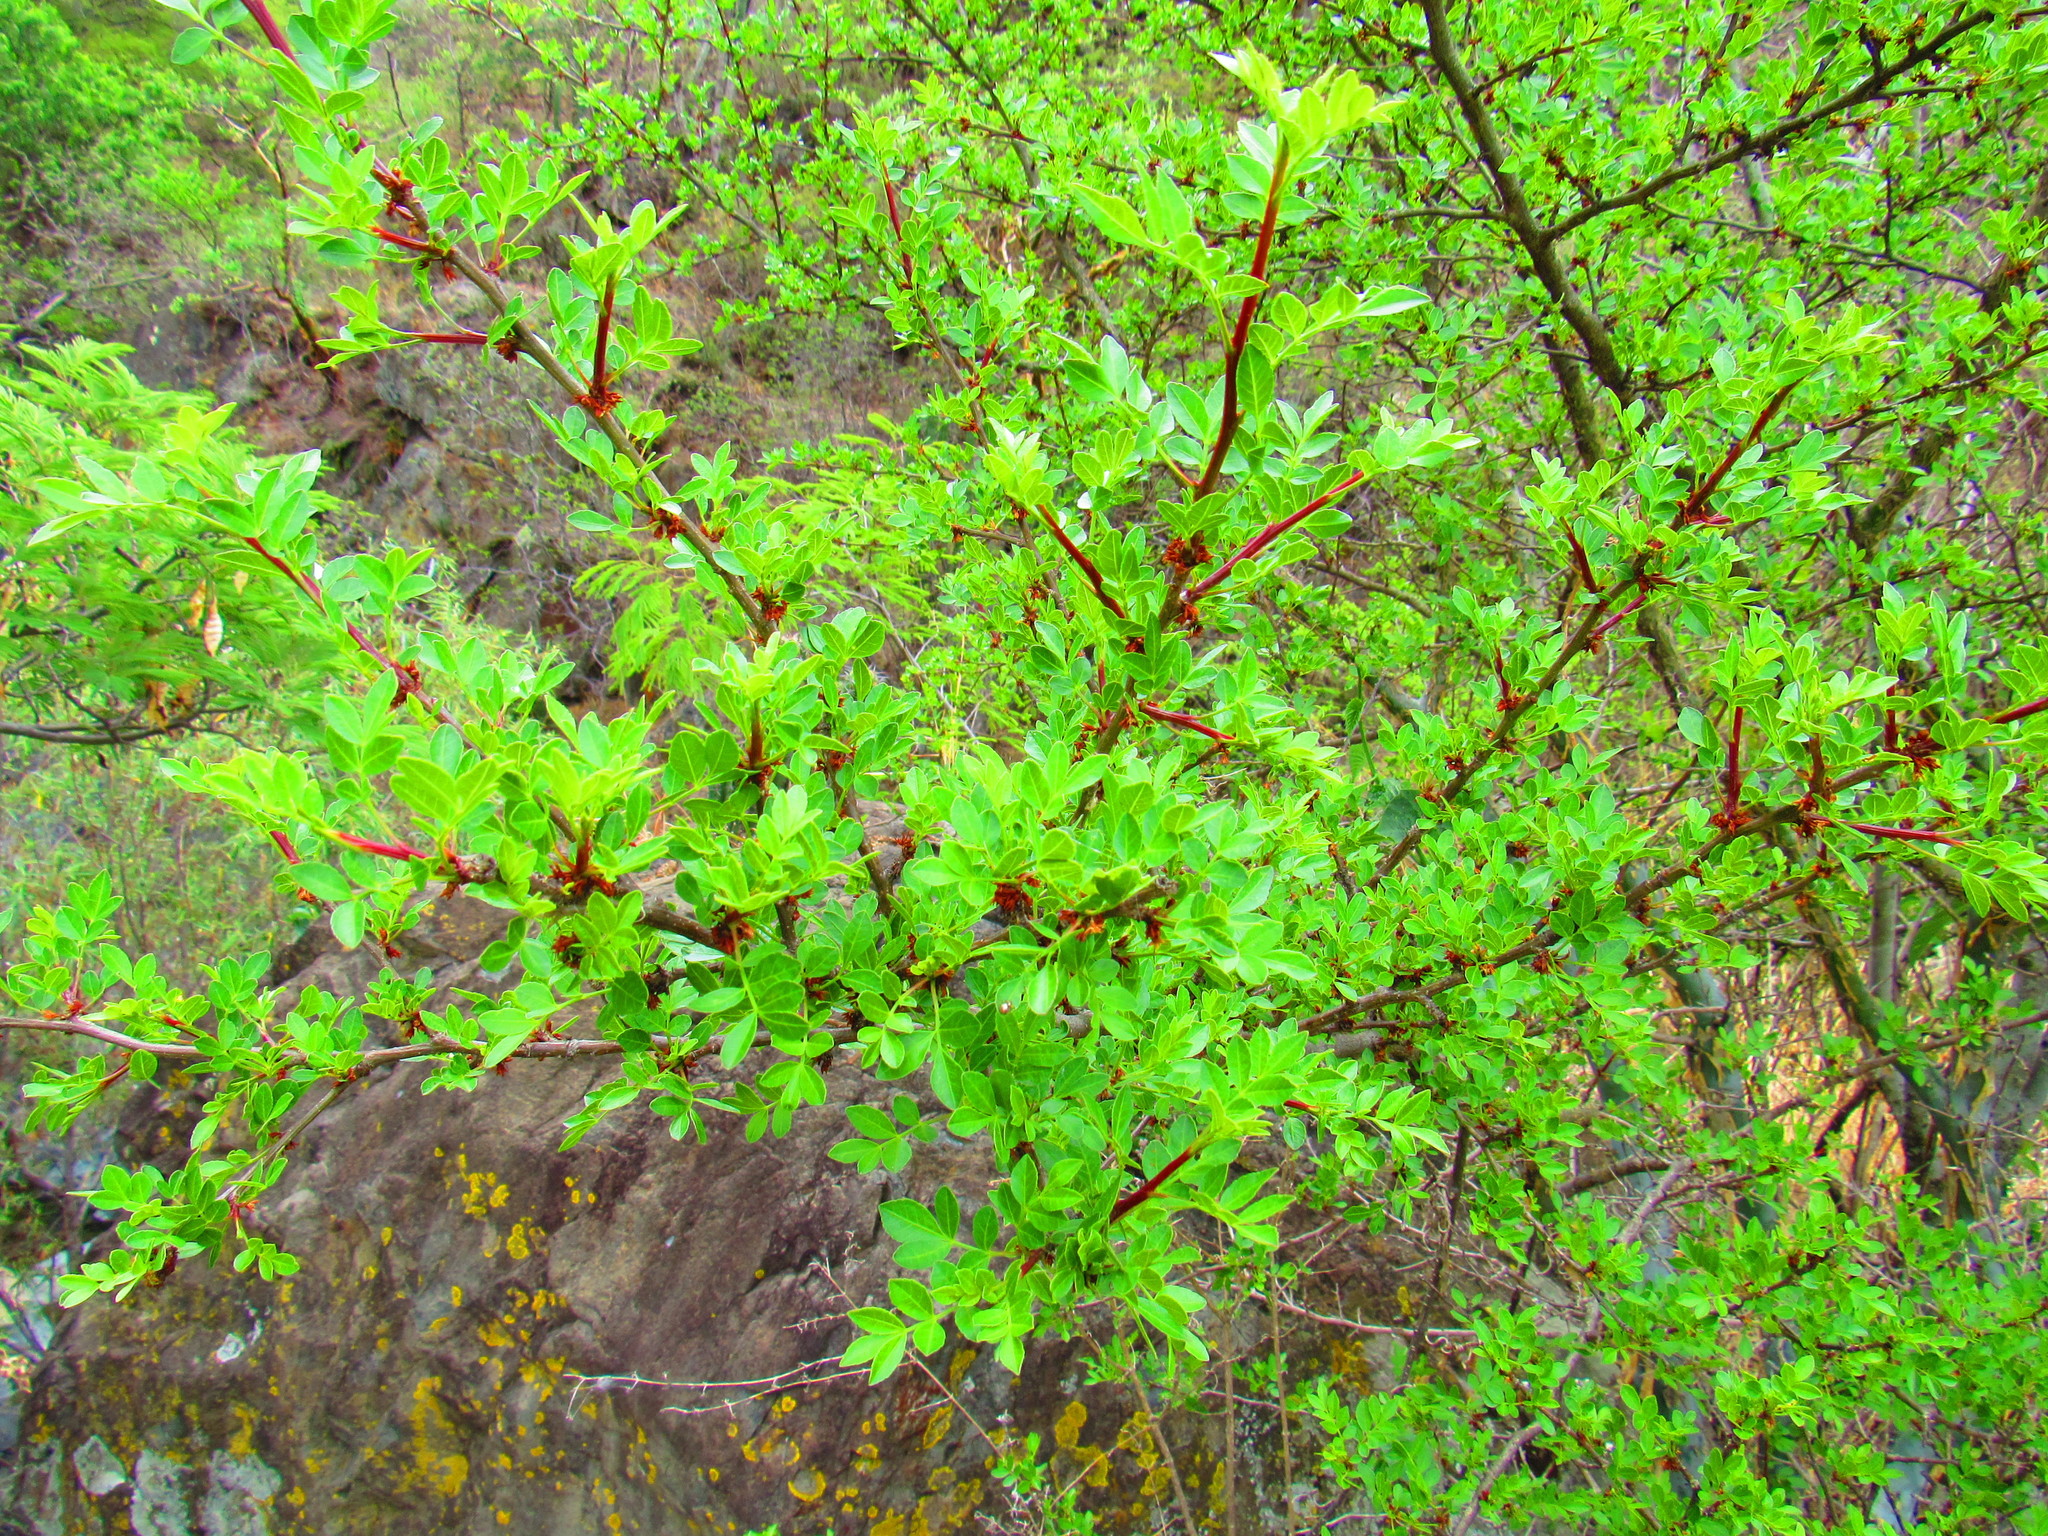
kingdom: Plantae
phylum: Tracheophyta
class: Magnoliopsida
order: Sapindales
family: Burseraceae
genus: Bursera
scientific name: Bursera fagaroides
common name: Elephant tree
